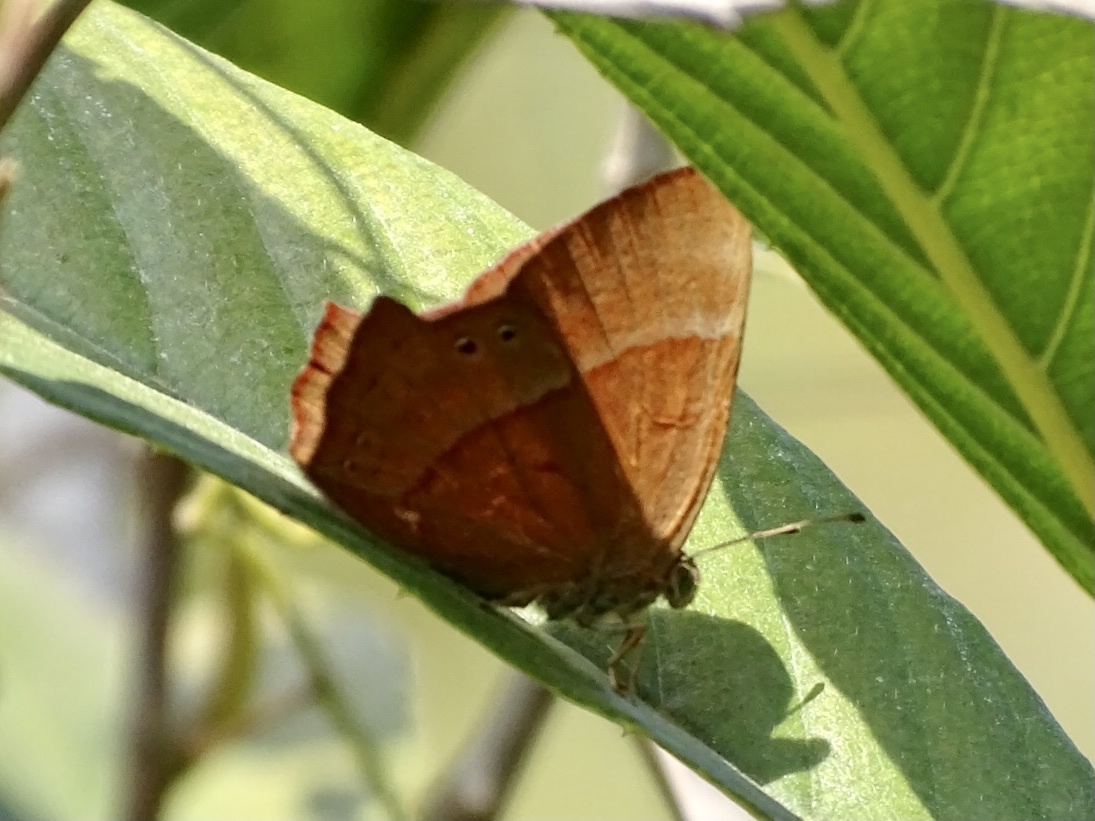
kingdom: Animalia
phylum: Arthropoda
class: Insecta
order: Lepidoptera
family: Lycaenidae
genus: Abisara
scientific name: Abisara echeria
